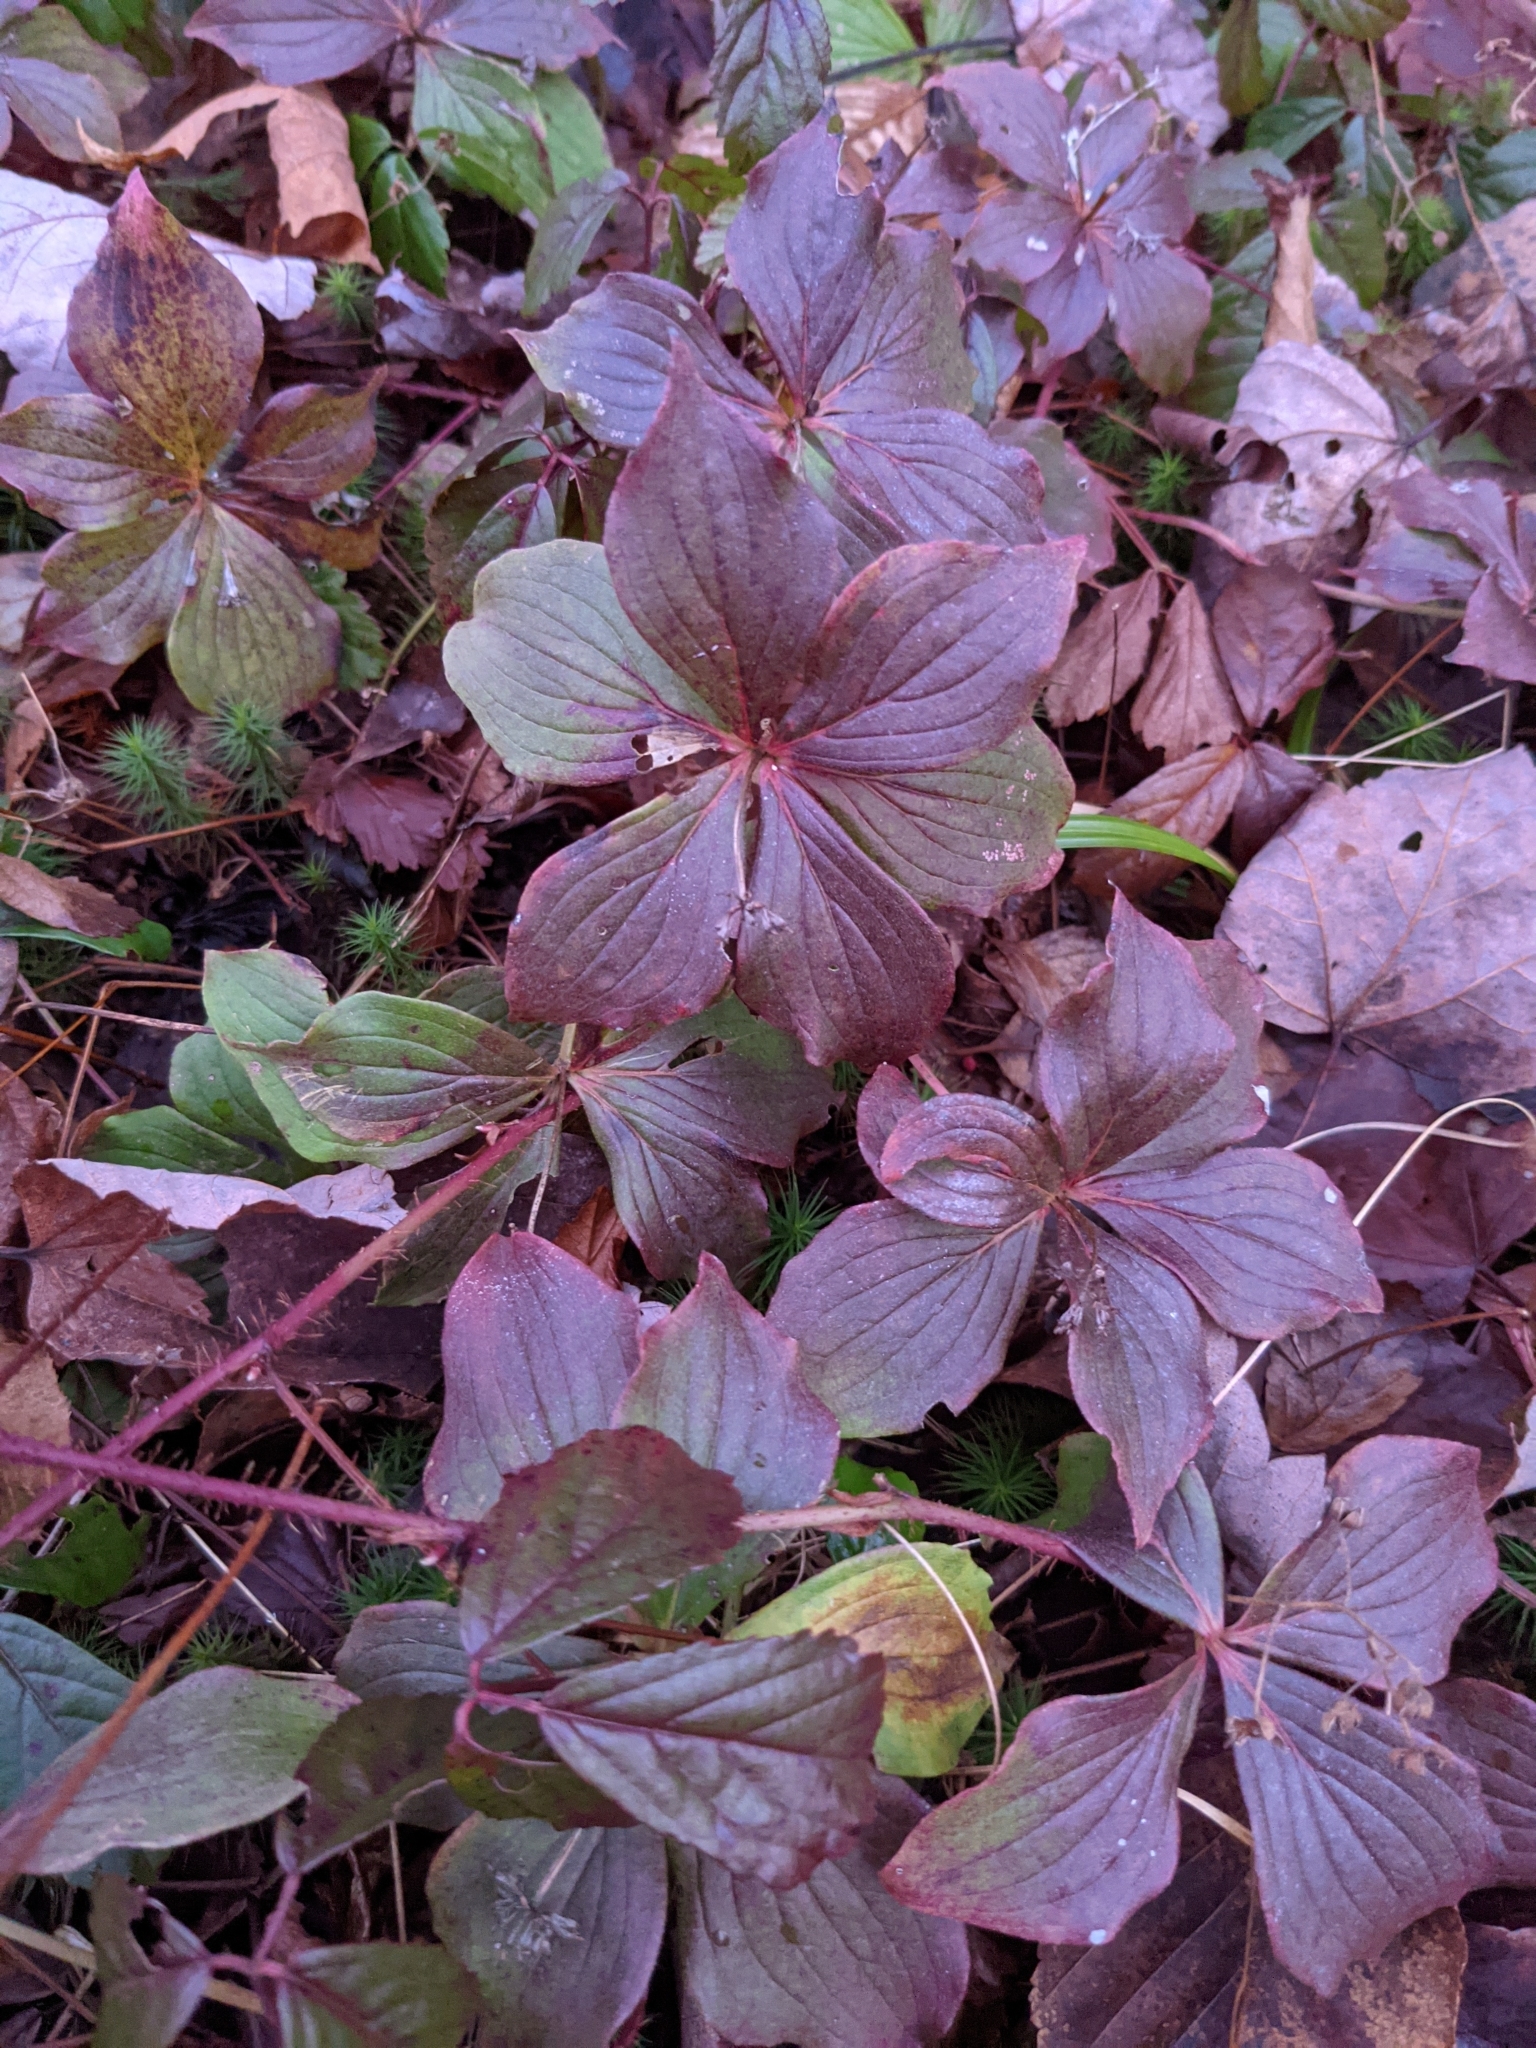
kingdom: Plantae
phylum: Tracheophyta
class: Magnoliopsida
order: Cornales
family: Cornaceae
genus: Cornus
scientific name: Cornus canadensis
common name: Creeping dogwood
